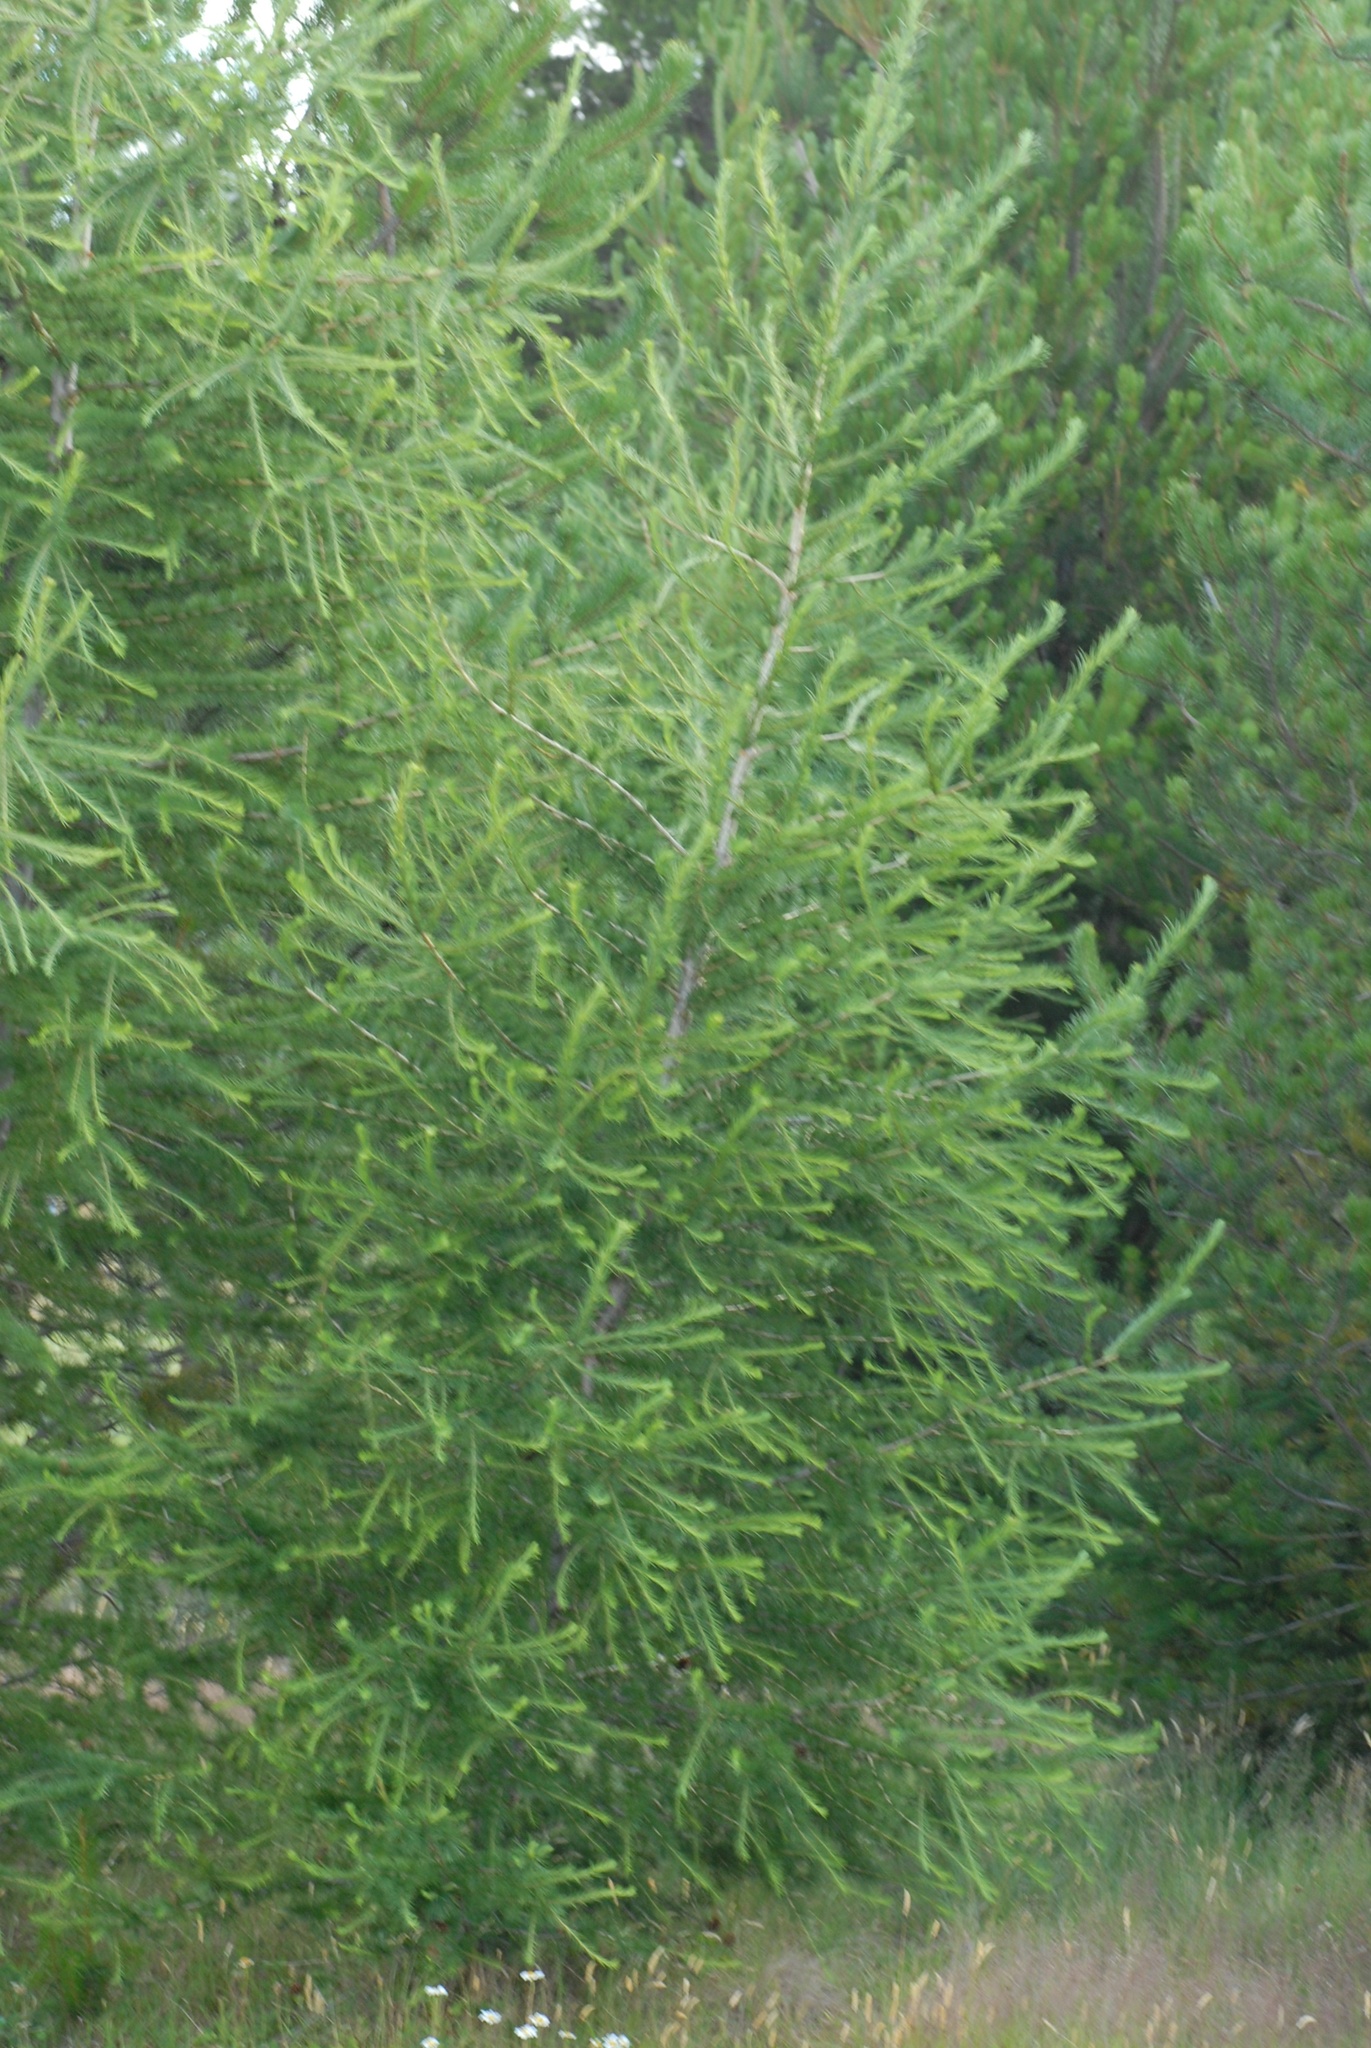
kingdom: Plantae
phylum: Tracheophyta
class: Pinopsida
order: Pinales
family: Pinaceae
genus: Larix
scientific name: Larix decidua
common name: European larch
